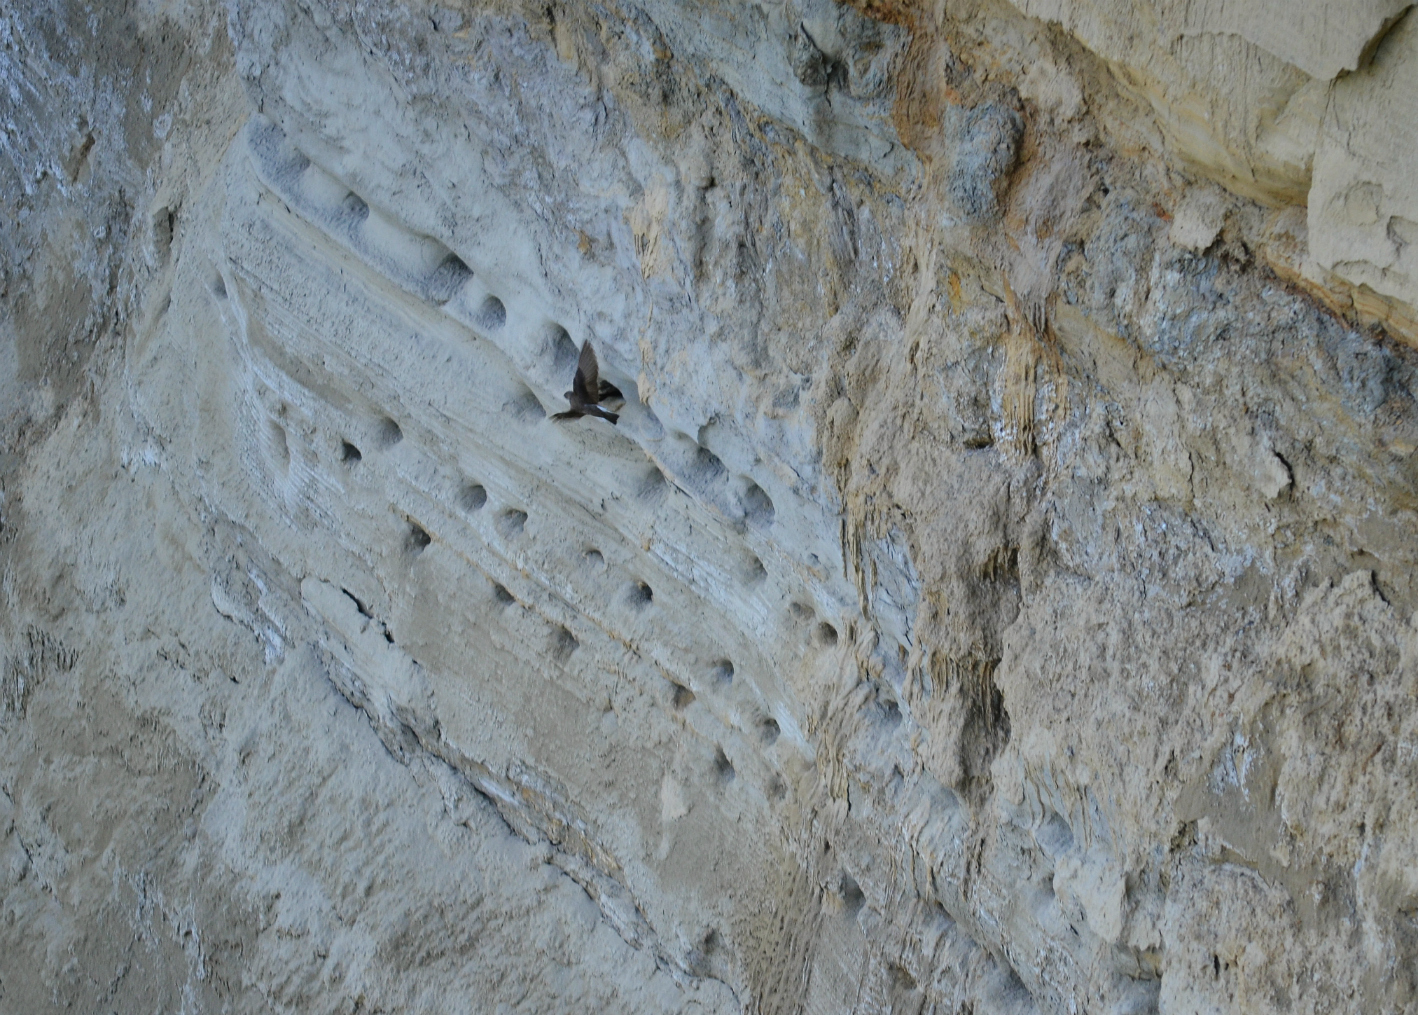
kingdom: Animalia
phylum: Chordata
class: Aves
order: Passeriformes
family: Hirundinidae
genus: Riparia
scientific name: Riparia riparia
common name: Sand martin
